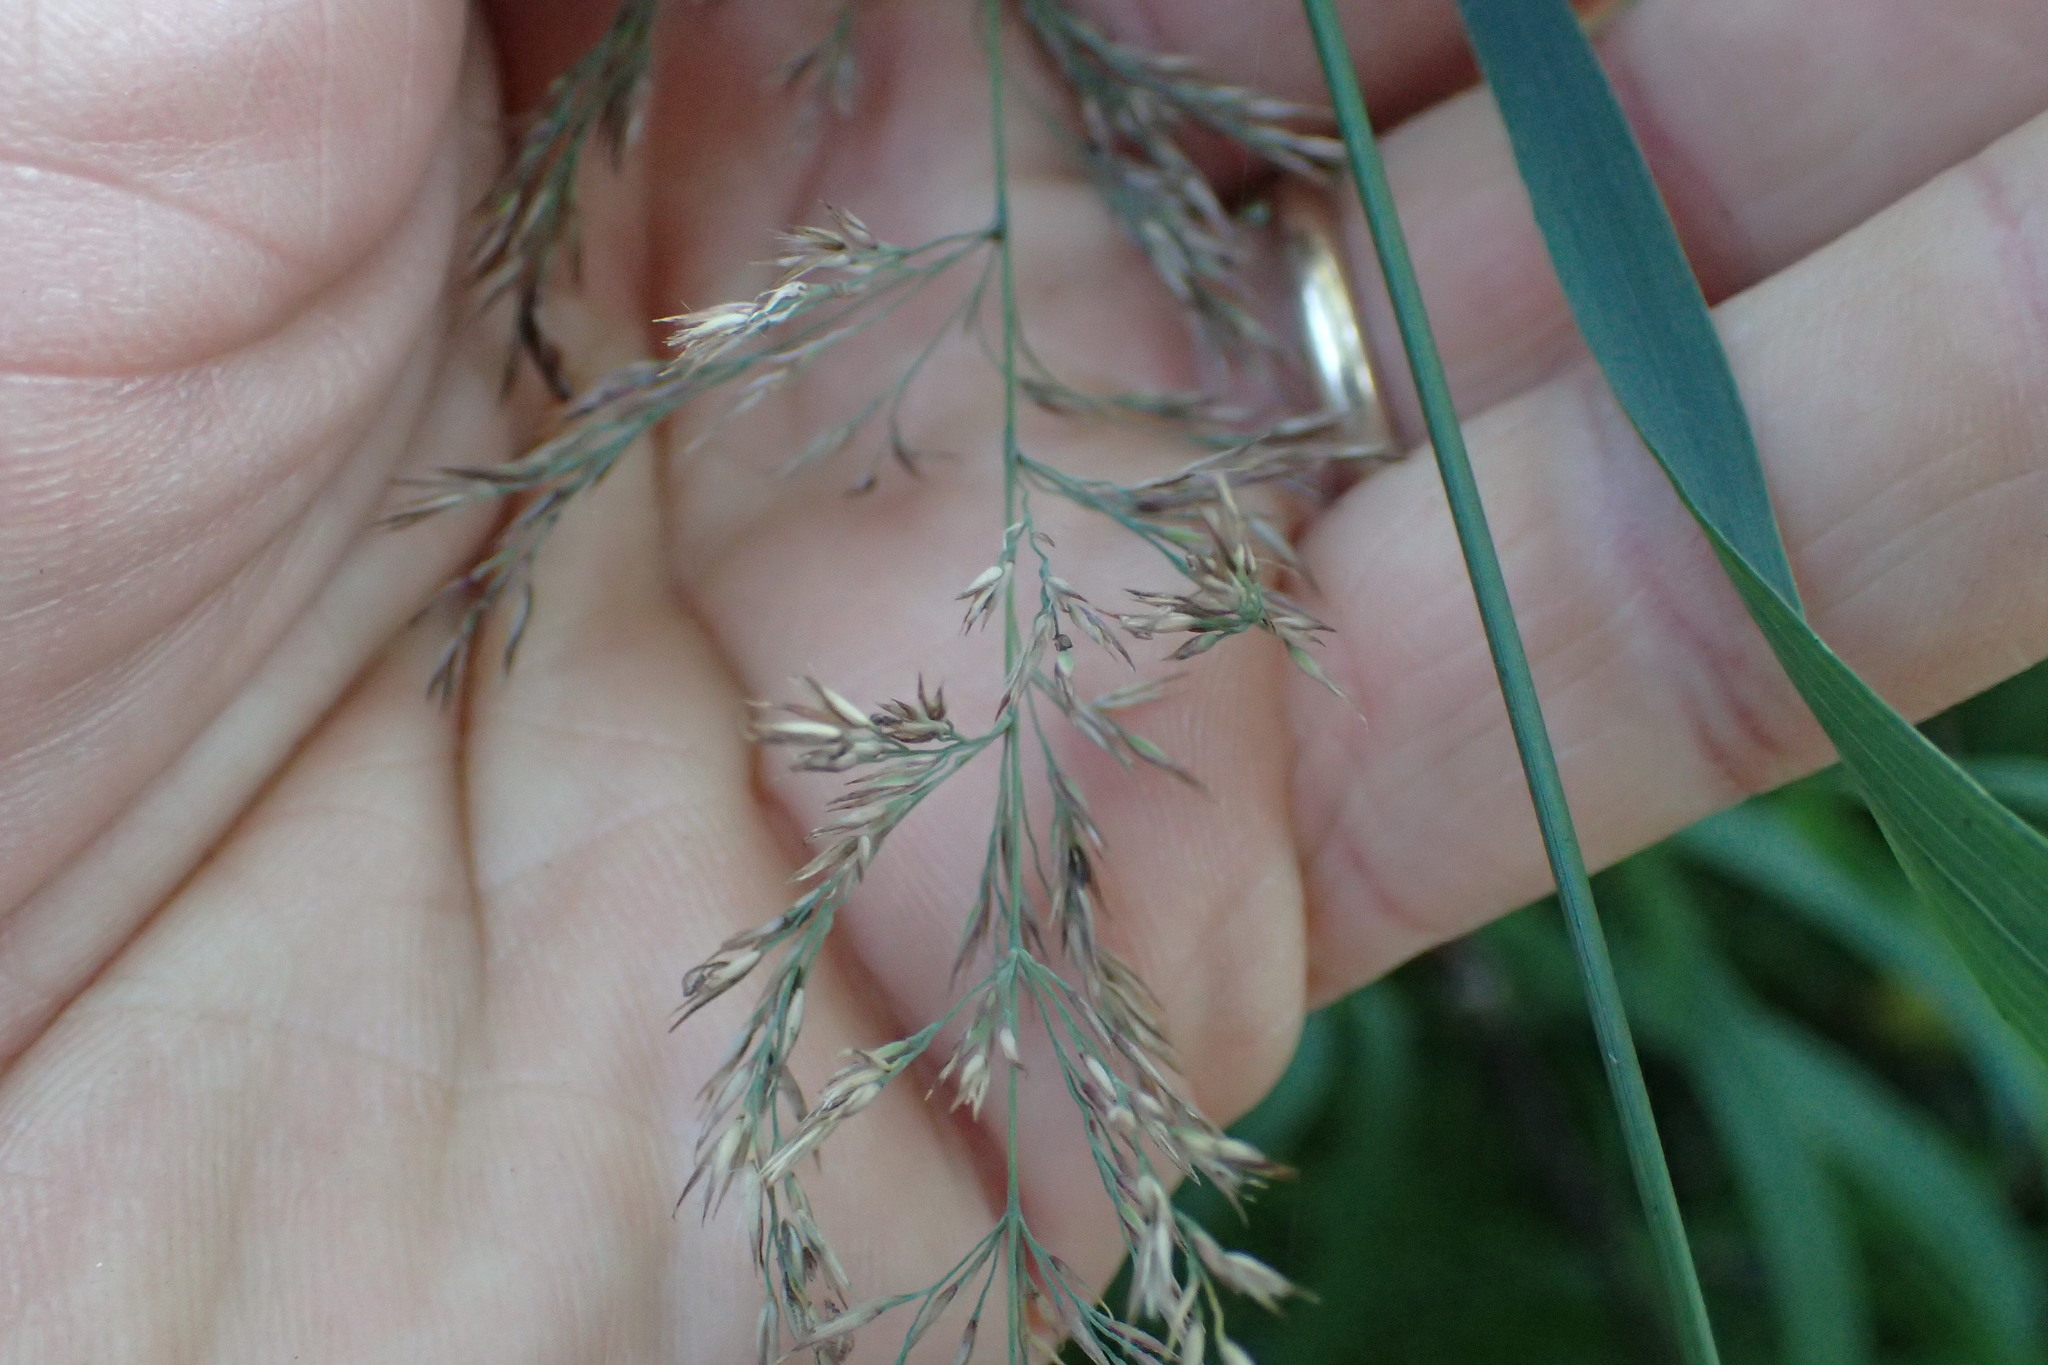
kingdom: Plantae
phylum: Tracheophyta
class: Liliopsida
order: Poales
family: Poaceae
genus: Calamagrostis
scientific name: Calamagrostis canadensis
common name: Canada bluejoint
